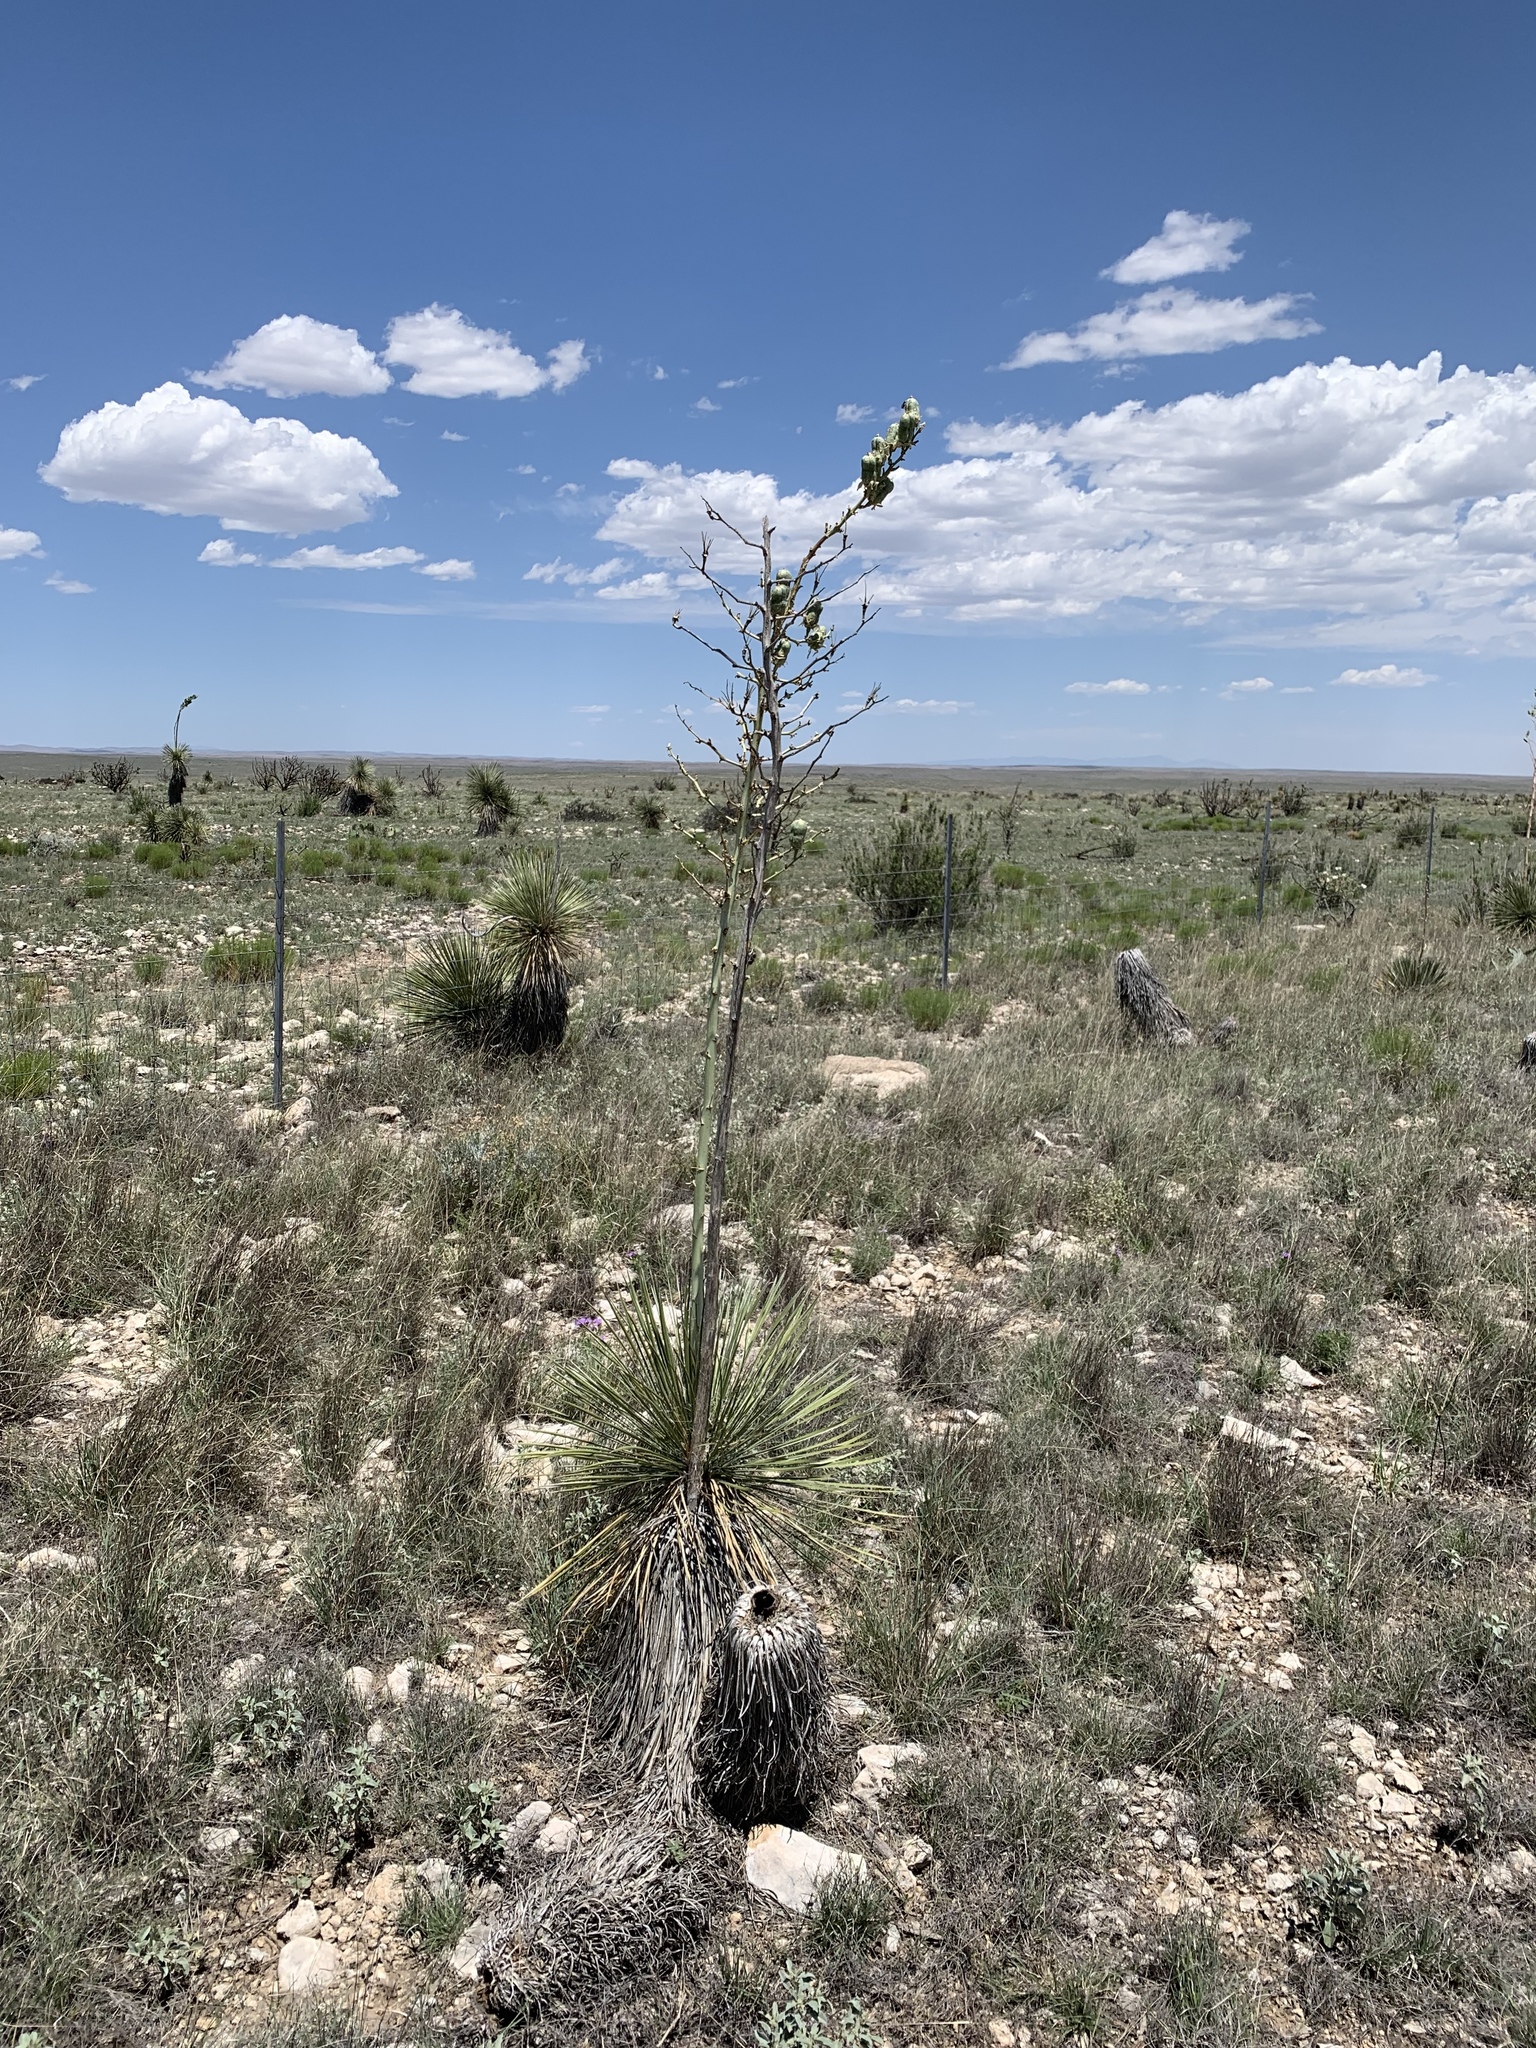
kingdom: Plantae
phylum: Tracheophyta
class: Liliopsida
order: Asparagales
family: Asparagaceae
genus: Yucca
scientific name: Yucca elata
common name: Palmella
